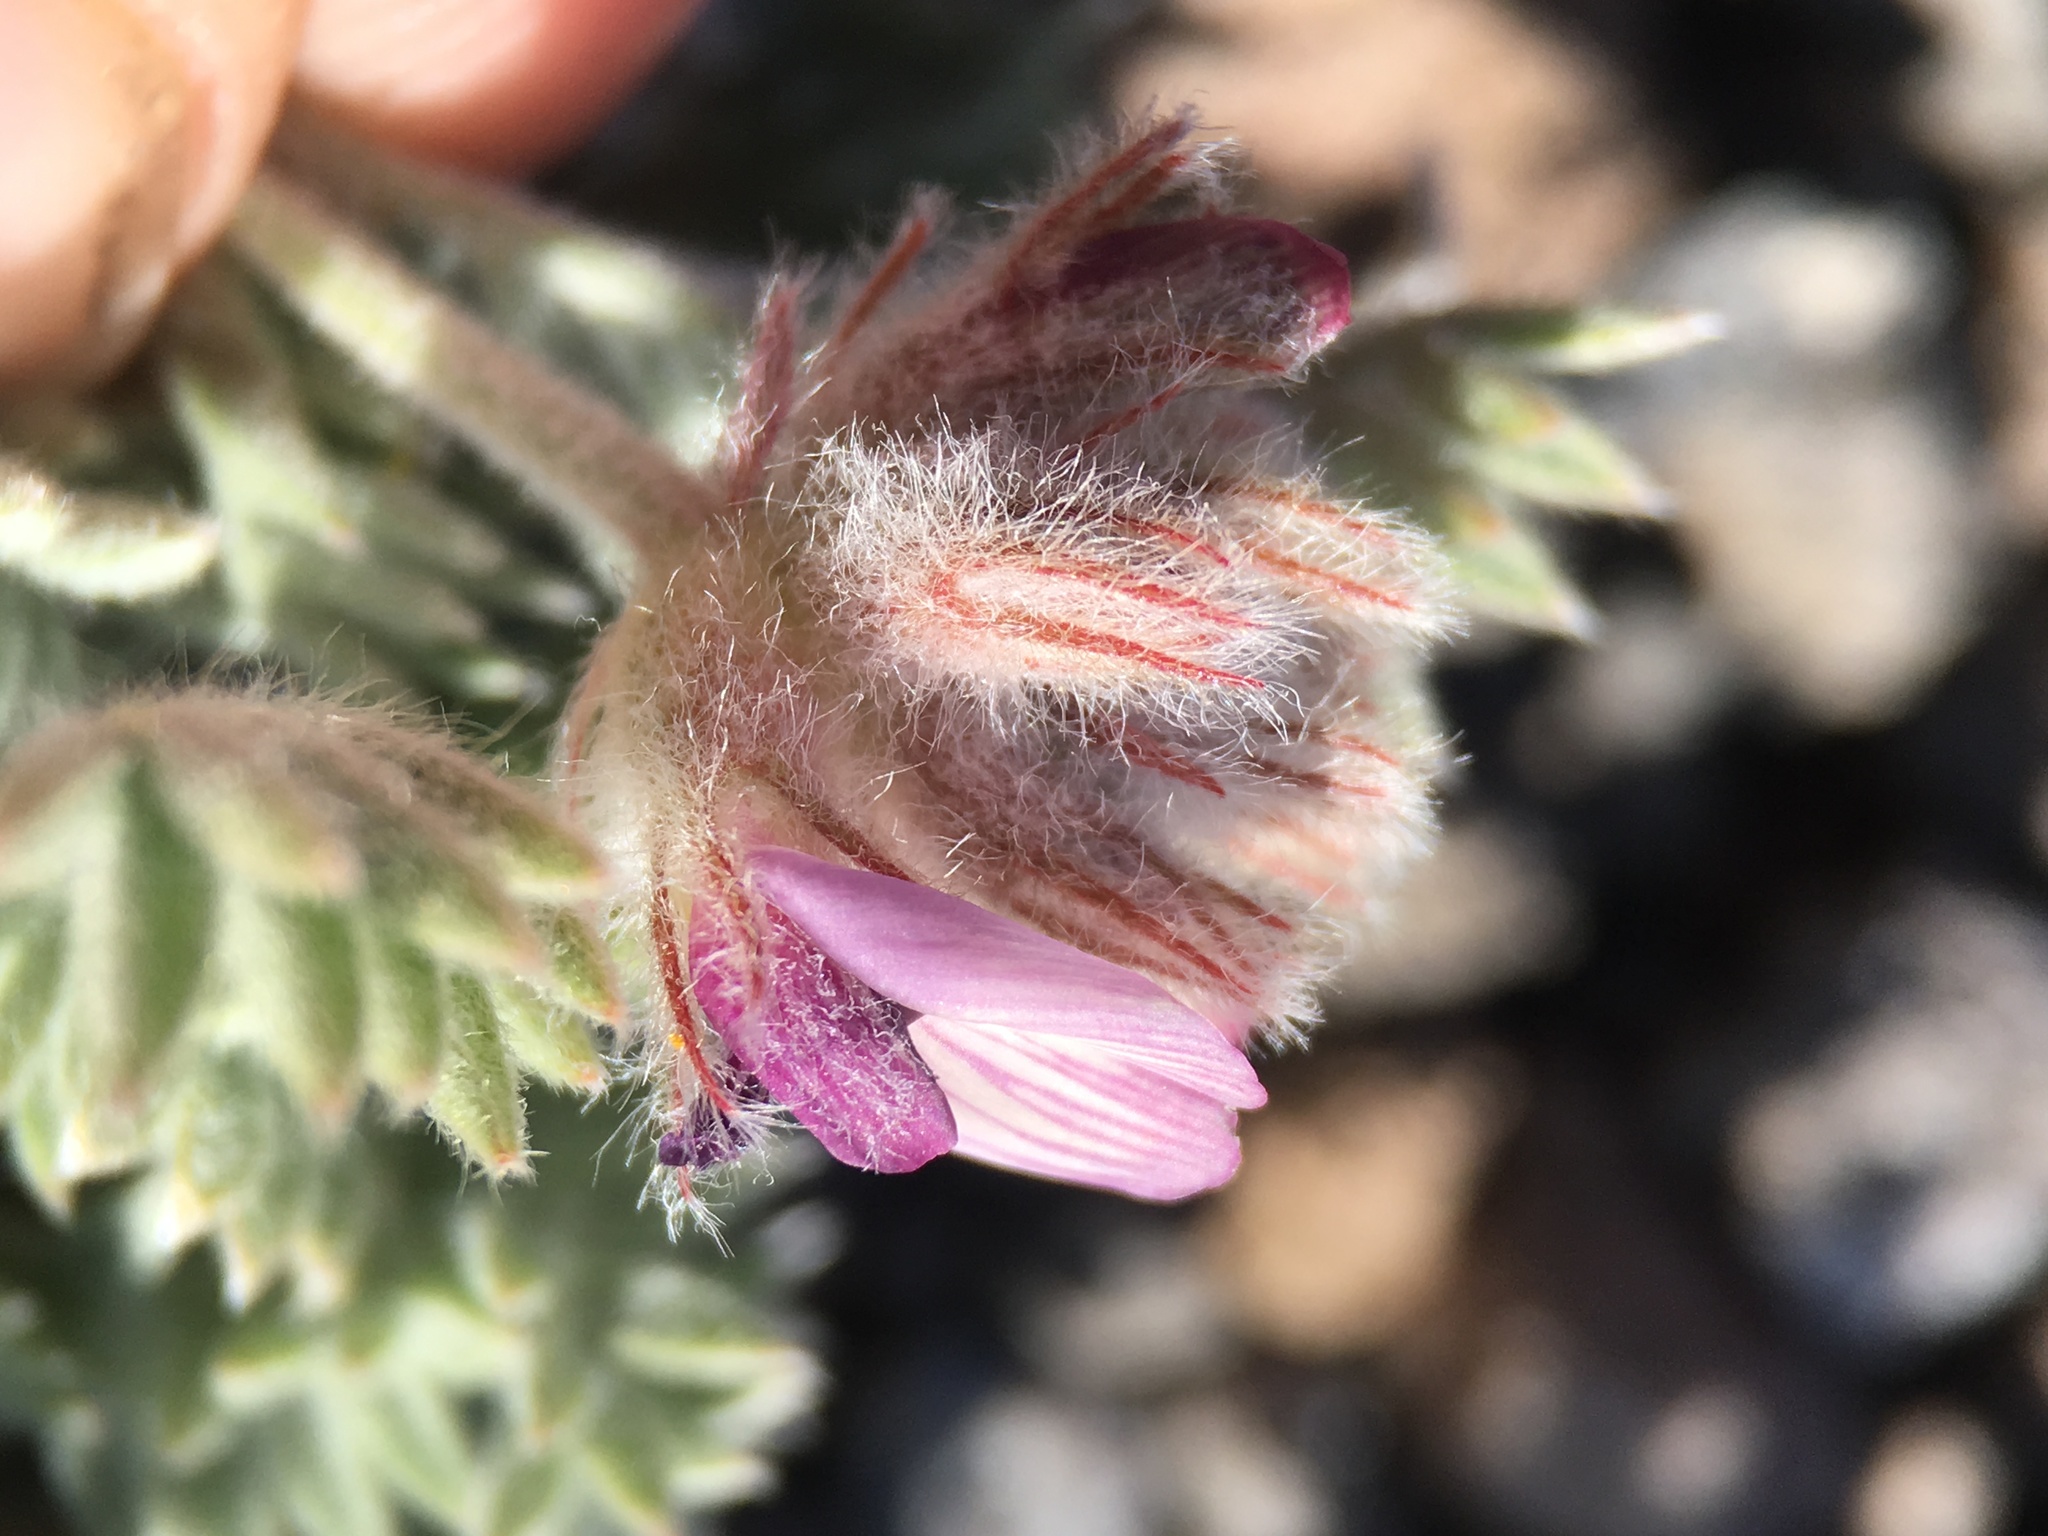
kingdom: Plantae
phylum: Tracheophyta
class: Magnoliopsida
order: Fabales
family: Fabaceae
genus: Astragalus
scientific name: Astragalus austiniae
